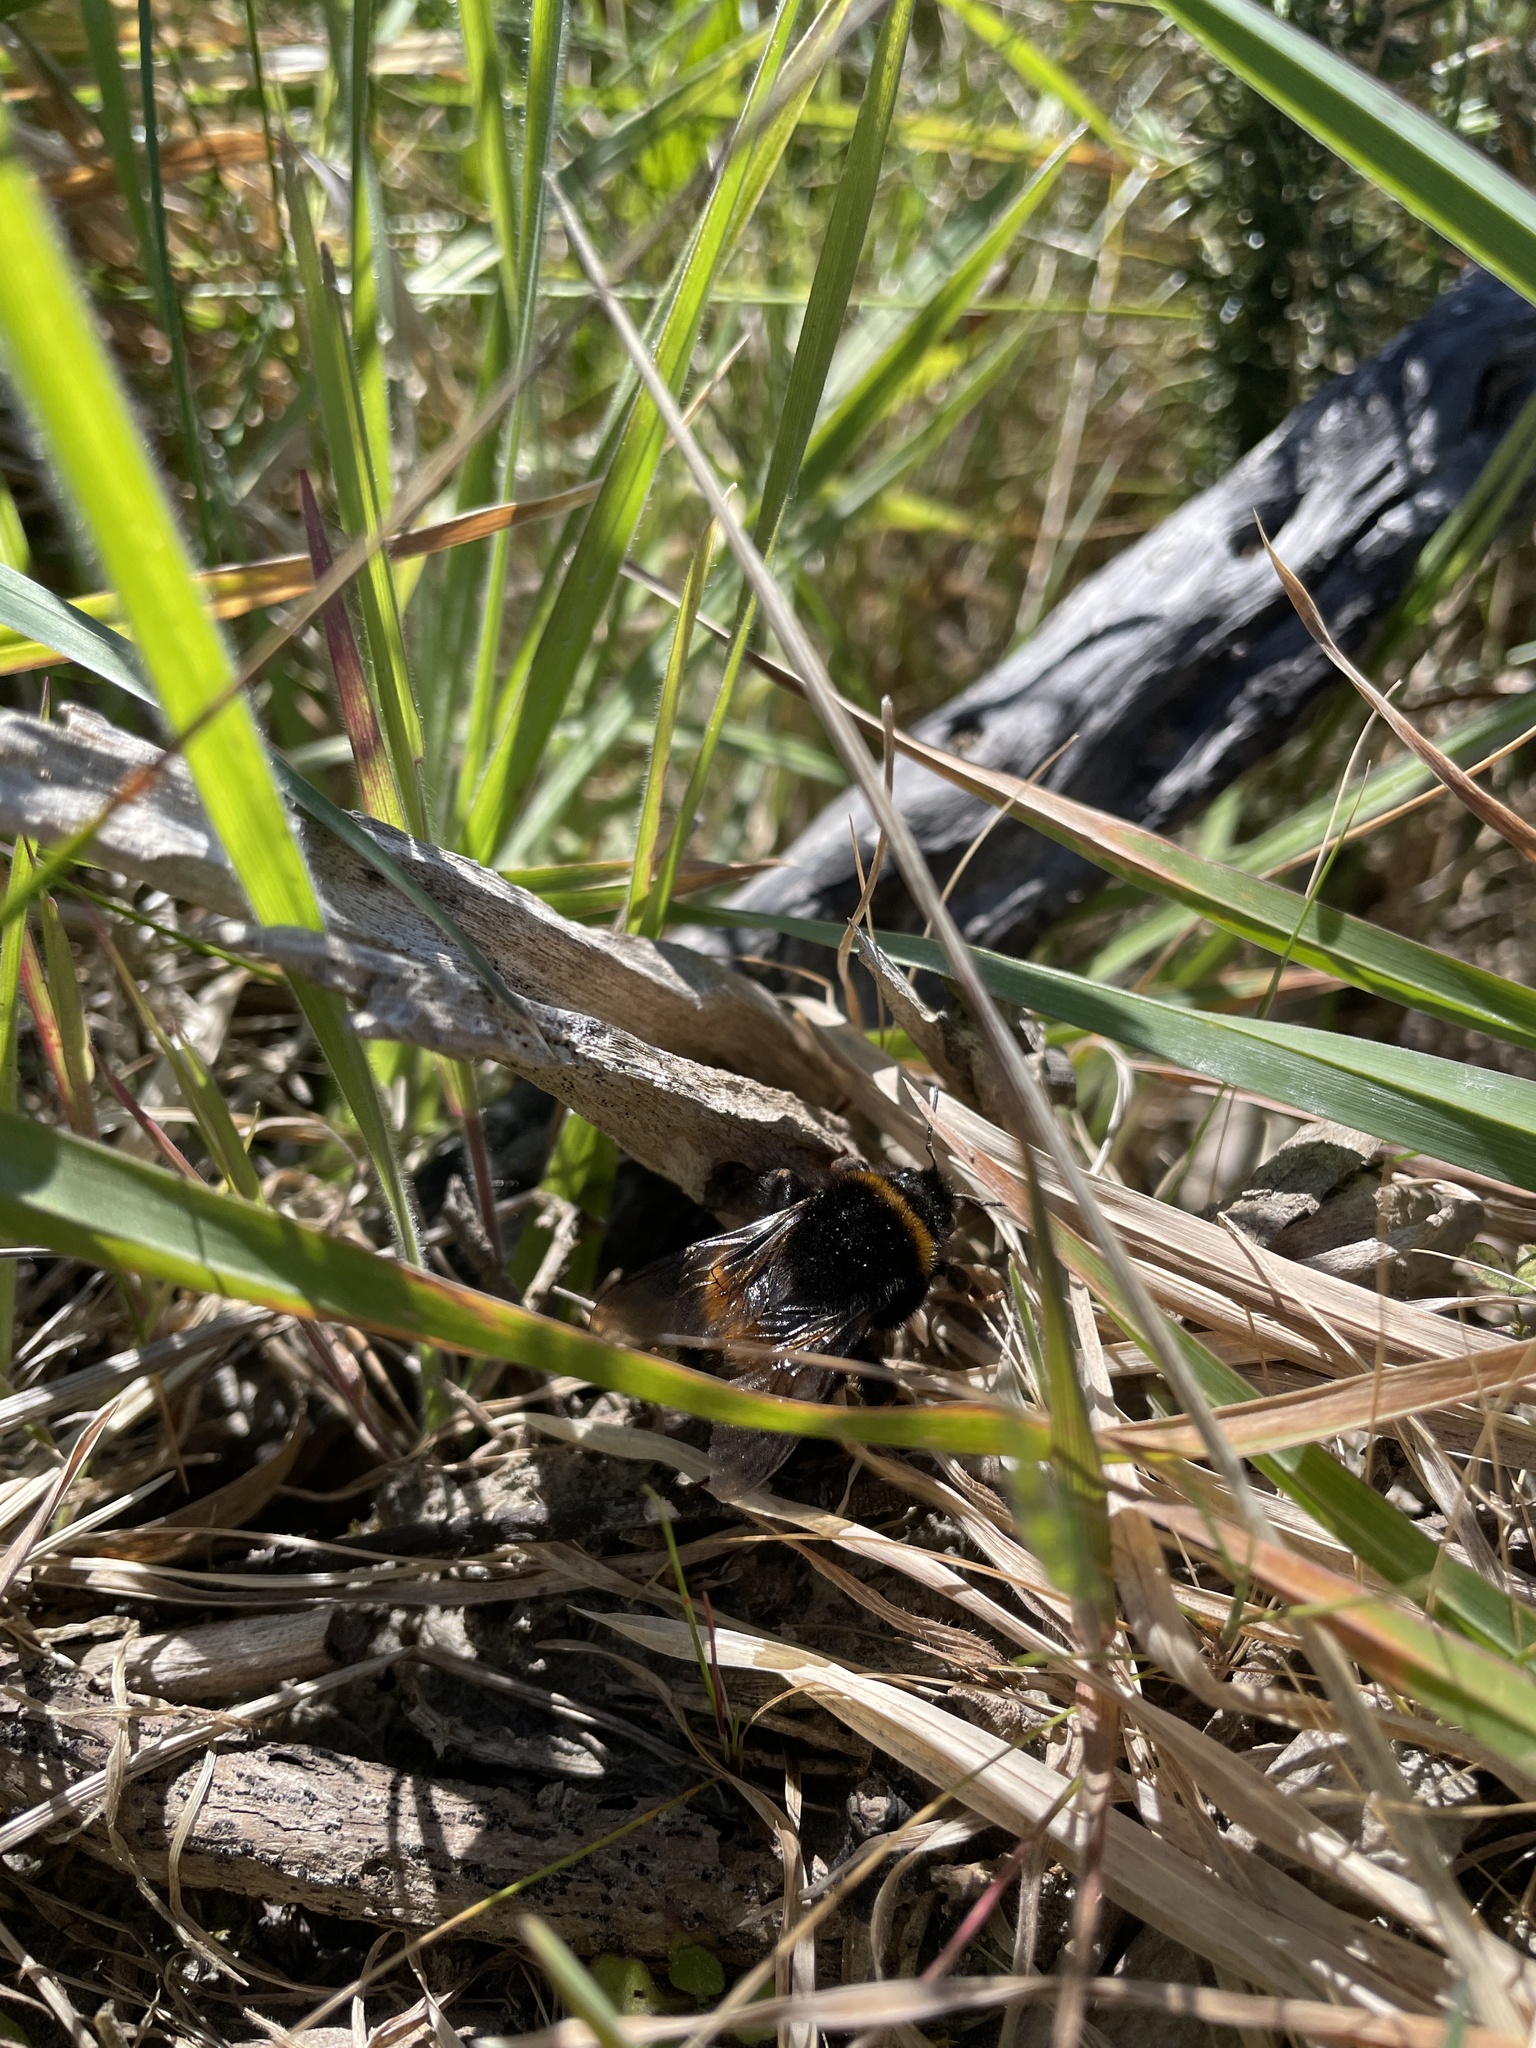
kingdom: Animalia
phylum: Arthropoda
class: Insecta
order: Hymenoptera
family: Apidae
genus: Bombus
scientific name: Bombus terrestris
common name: Buff-tailed bumblebee
